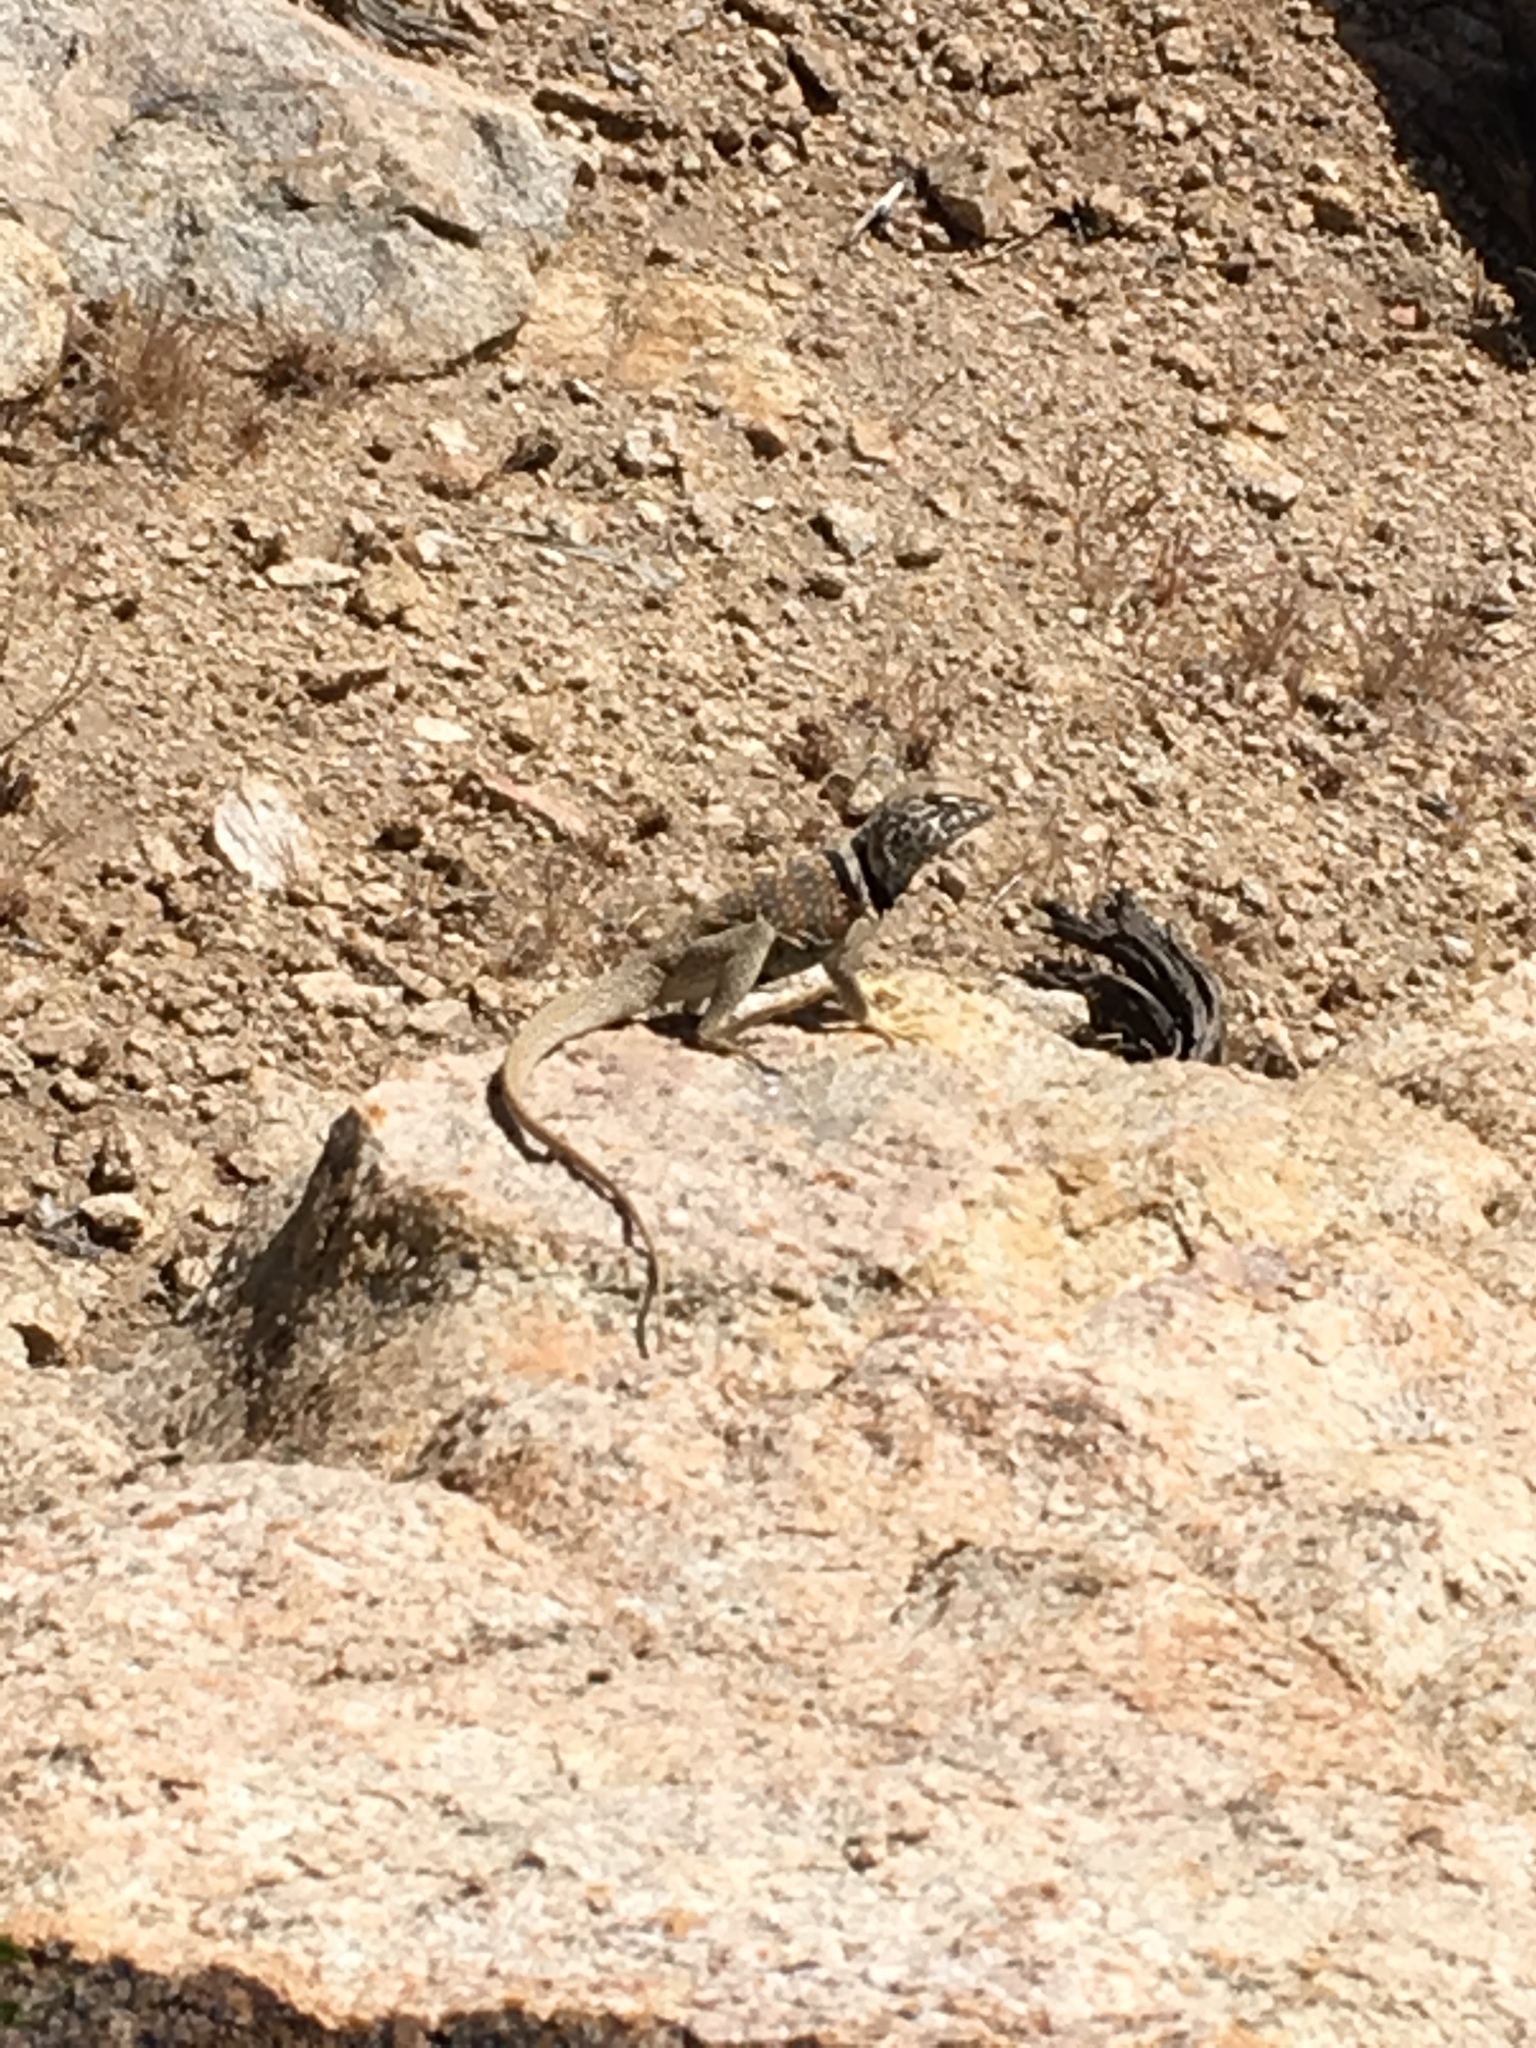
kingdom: Animalia
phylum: Chordata
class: Squamata
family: Crotaphytidae
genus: Crotaphytus
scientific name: Crotaphytus bicinctores
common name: Mojave black-collared lizard
